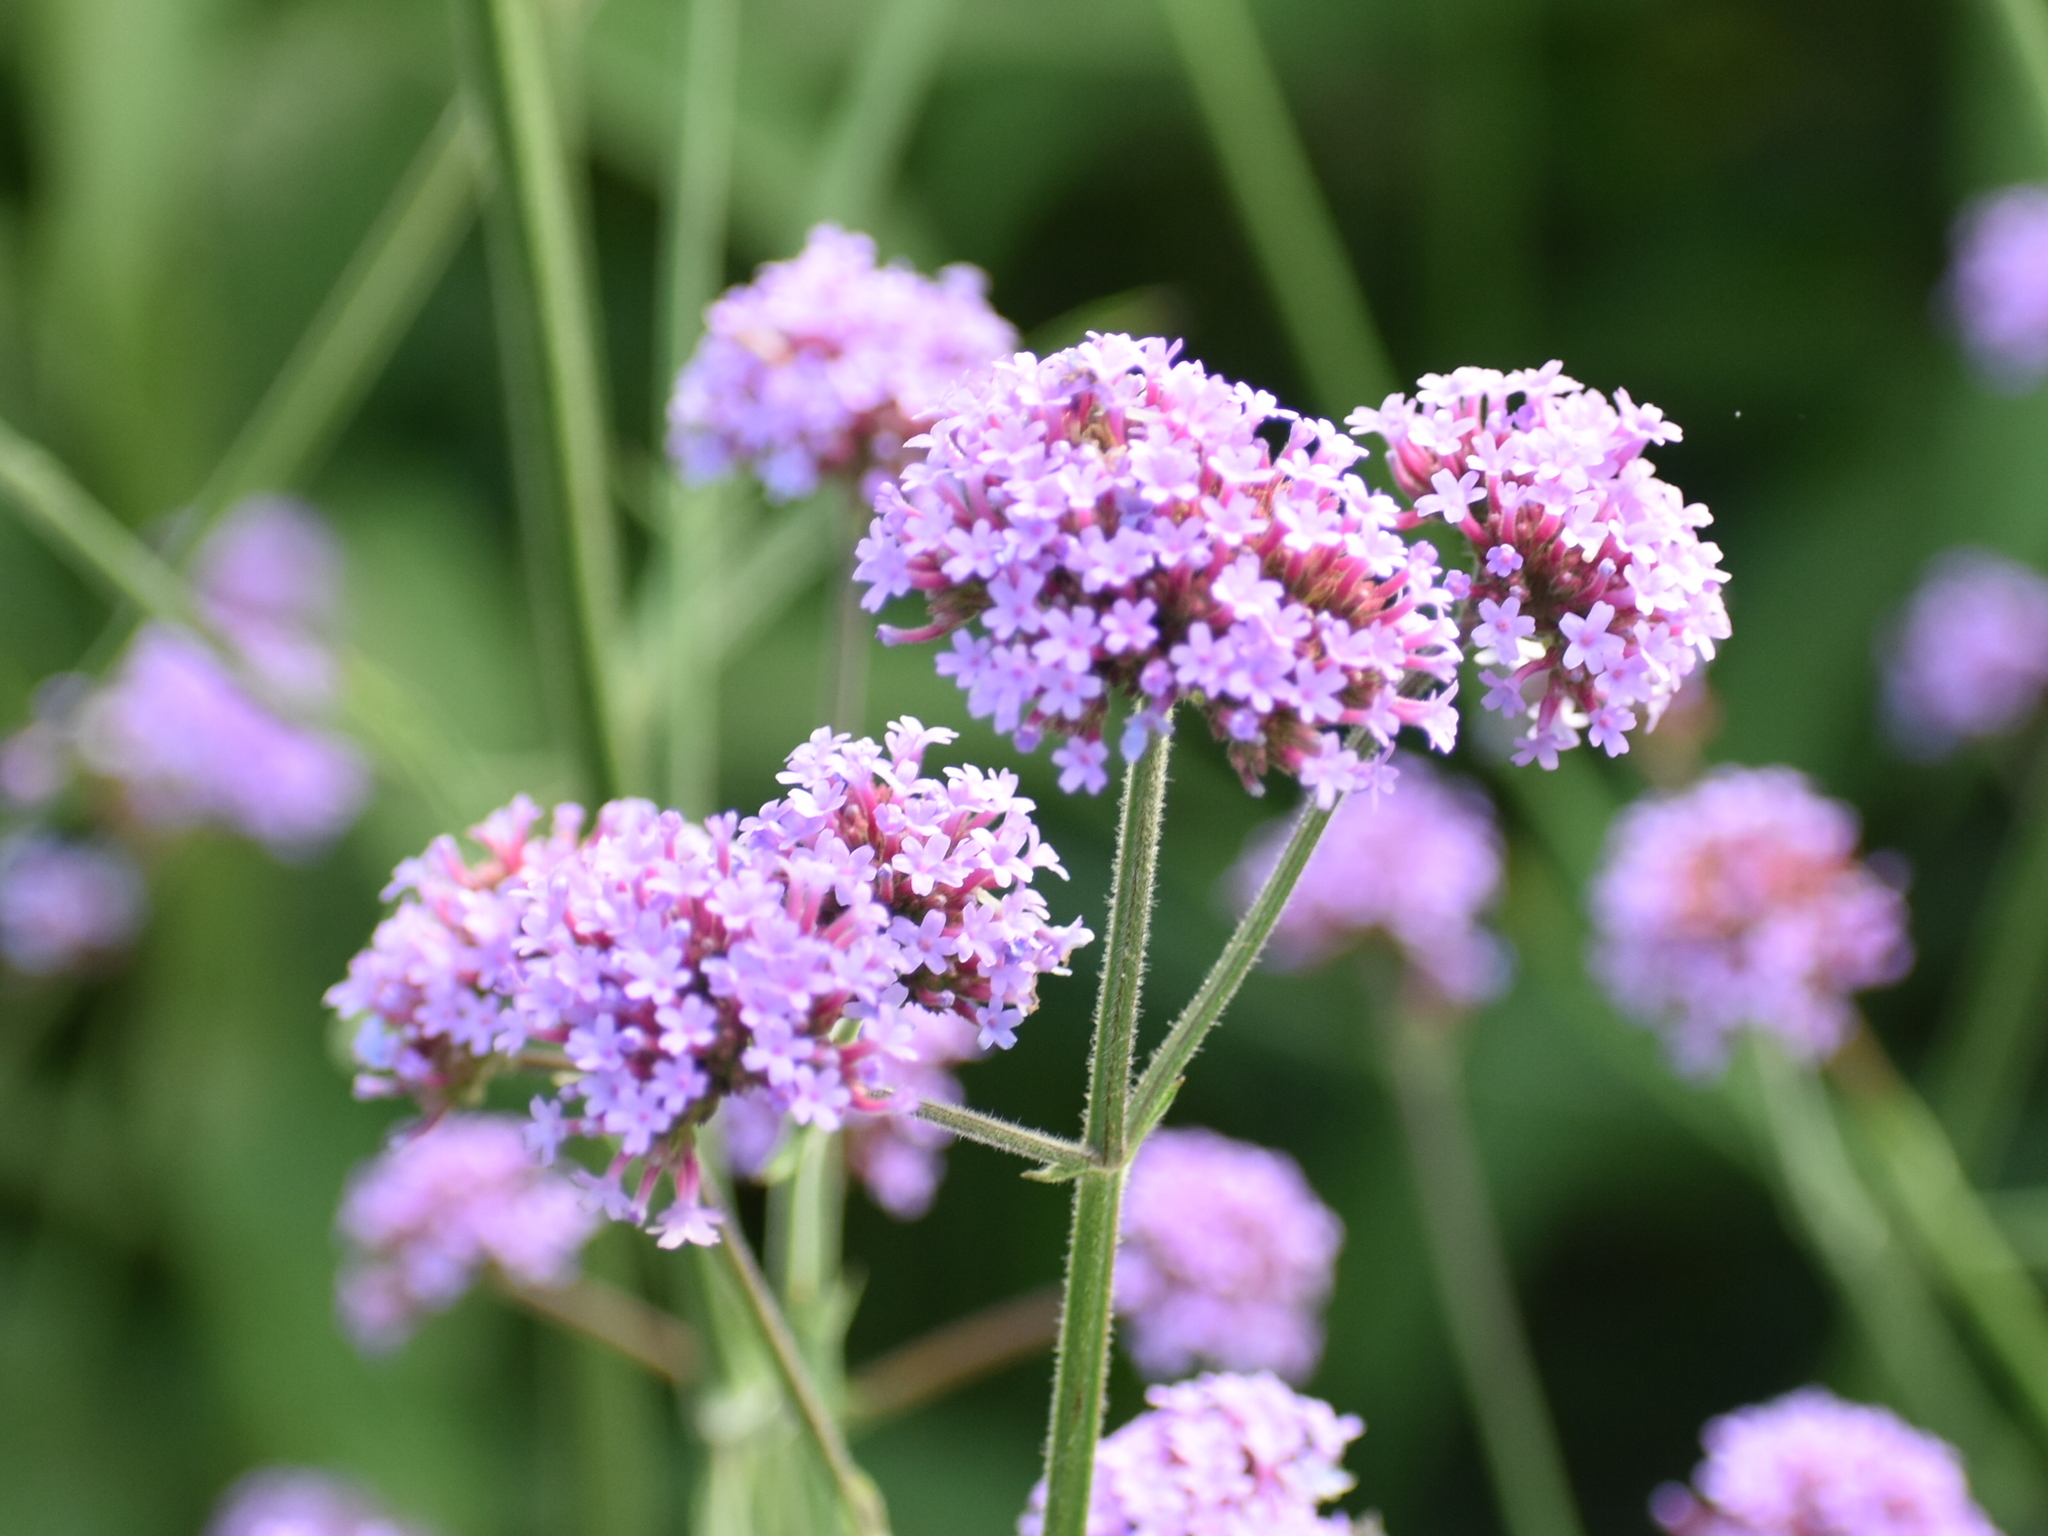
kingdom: Plantae
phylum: Tracheophyta
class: Magnoliopsida
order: Lamiales
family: Verbenaceae
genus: Verbena
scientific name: Verbena bonariensis
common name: Purpletop vervain
